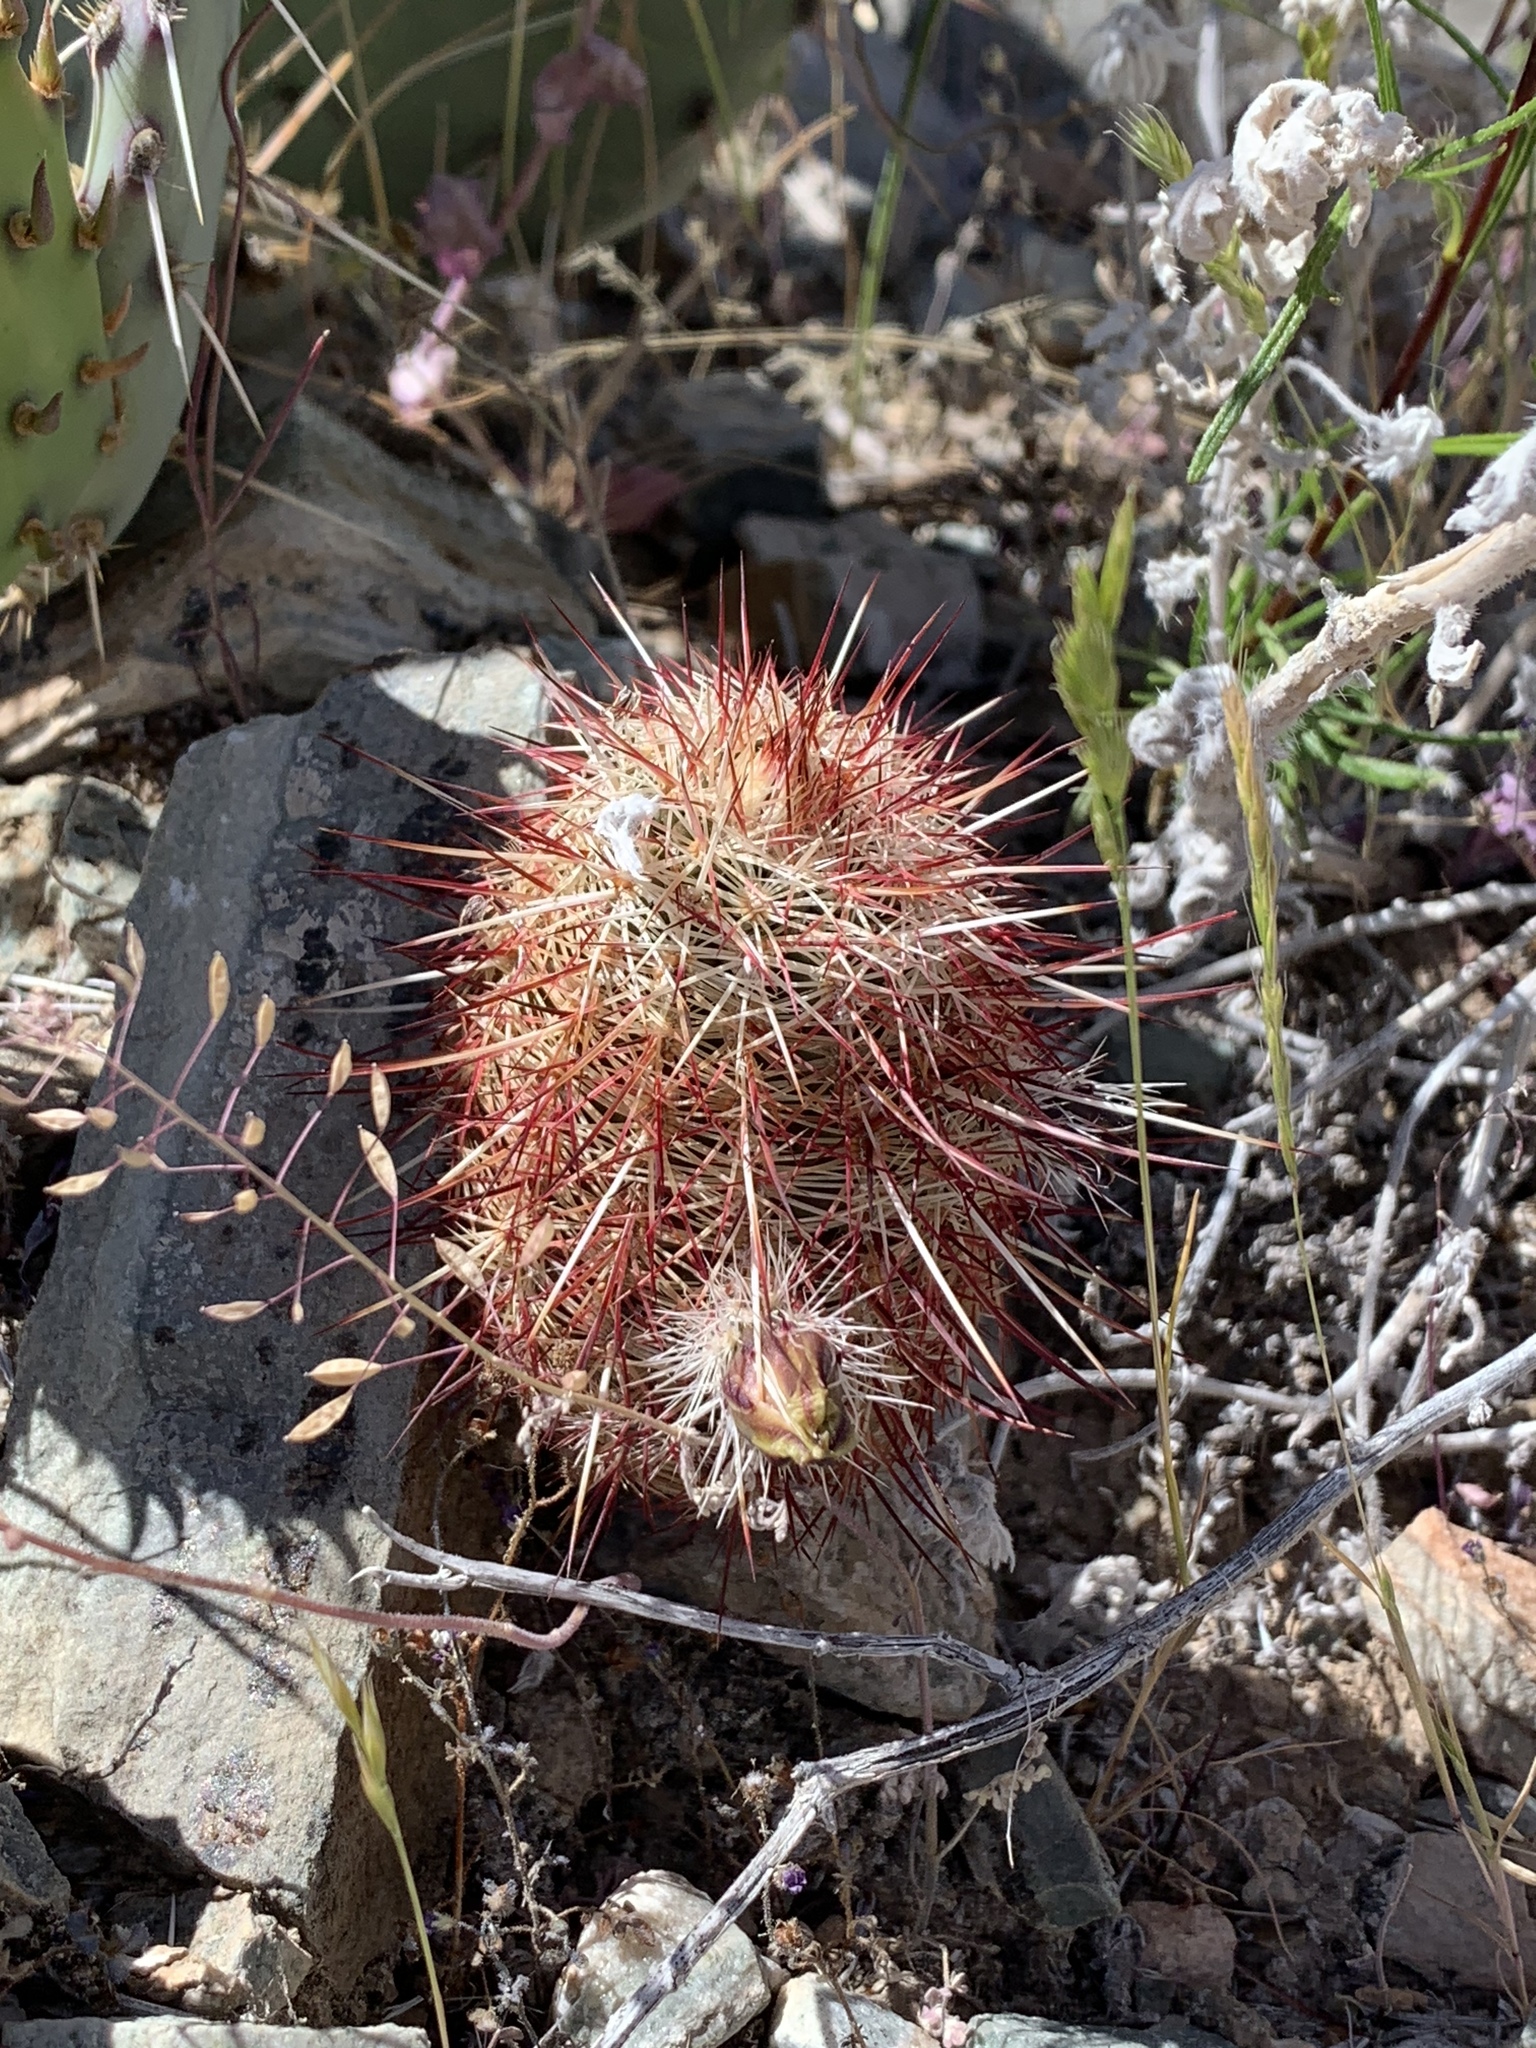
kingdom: Plantae
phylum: Tracheophyta
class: Magnoliopsida
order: Caryophyllales
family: Cactaceae
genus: Echinocereus
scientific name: Echinocereus viridiflorus
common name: Nylon hedgehog cactus
